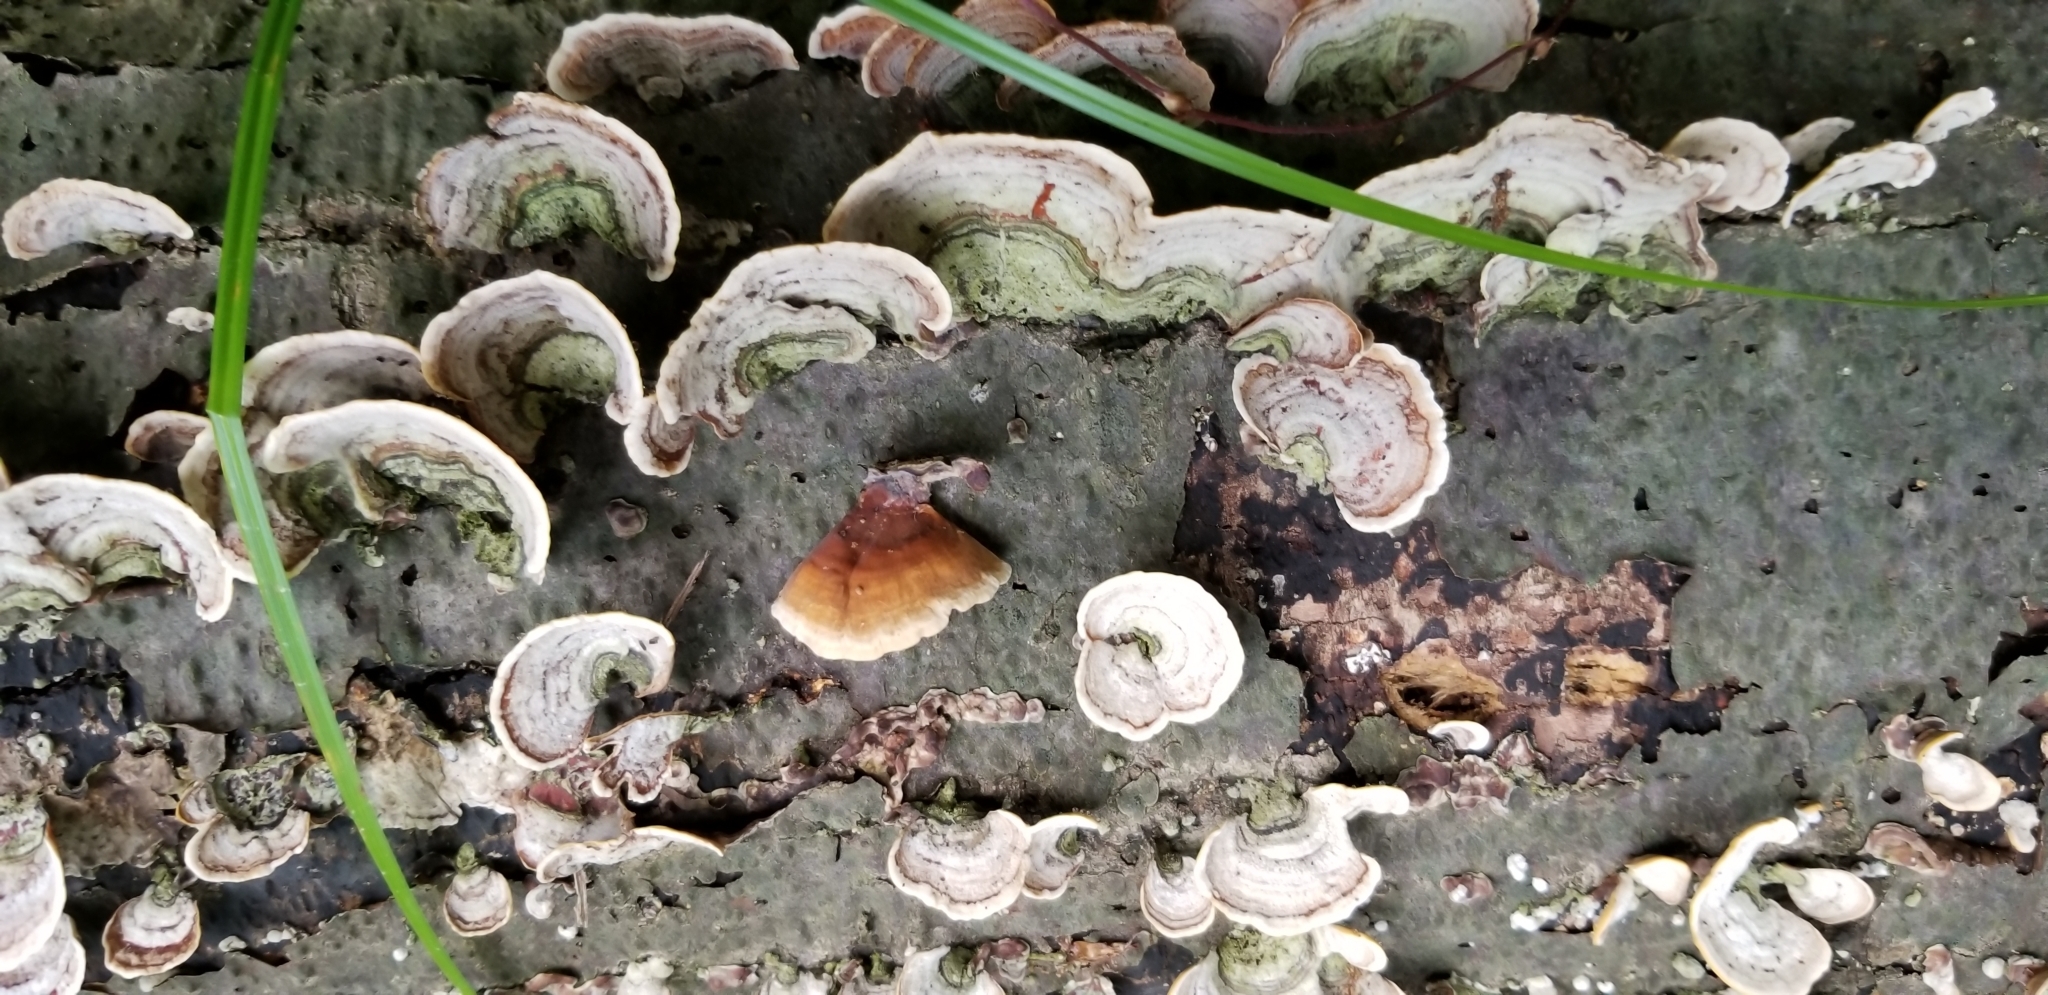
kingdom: Fungi
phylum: Basidiomycota
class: Agaricomycetes
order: Russulales
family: Stereaceae
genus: Stereum
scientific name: Stereum ostrea
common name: False turkeytail
